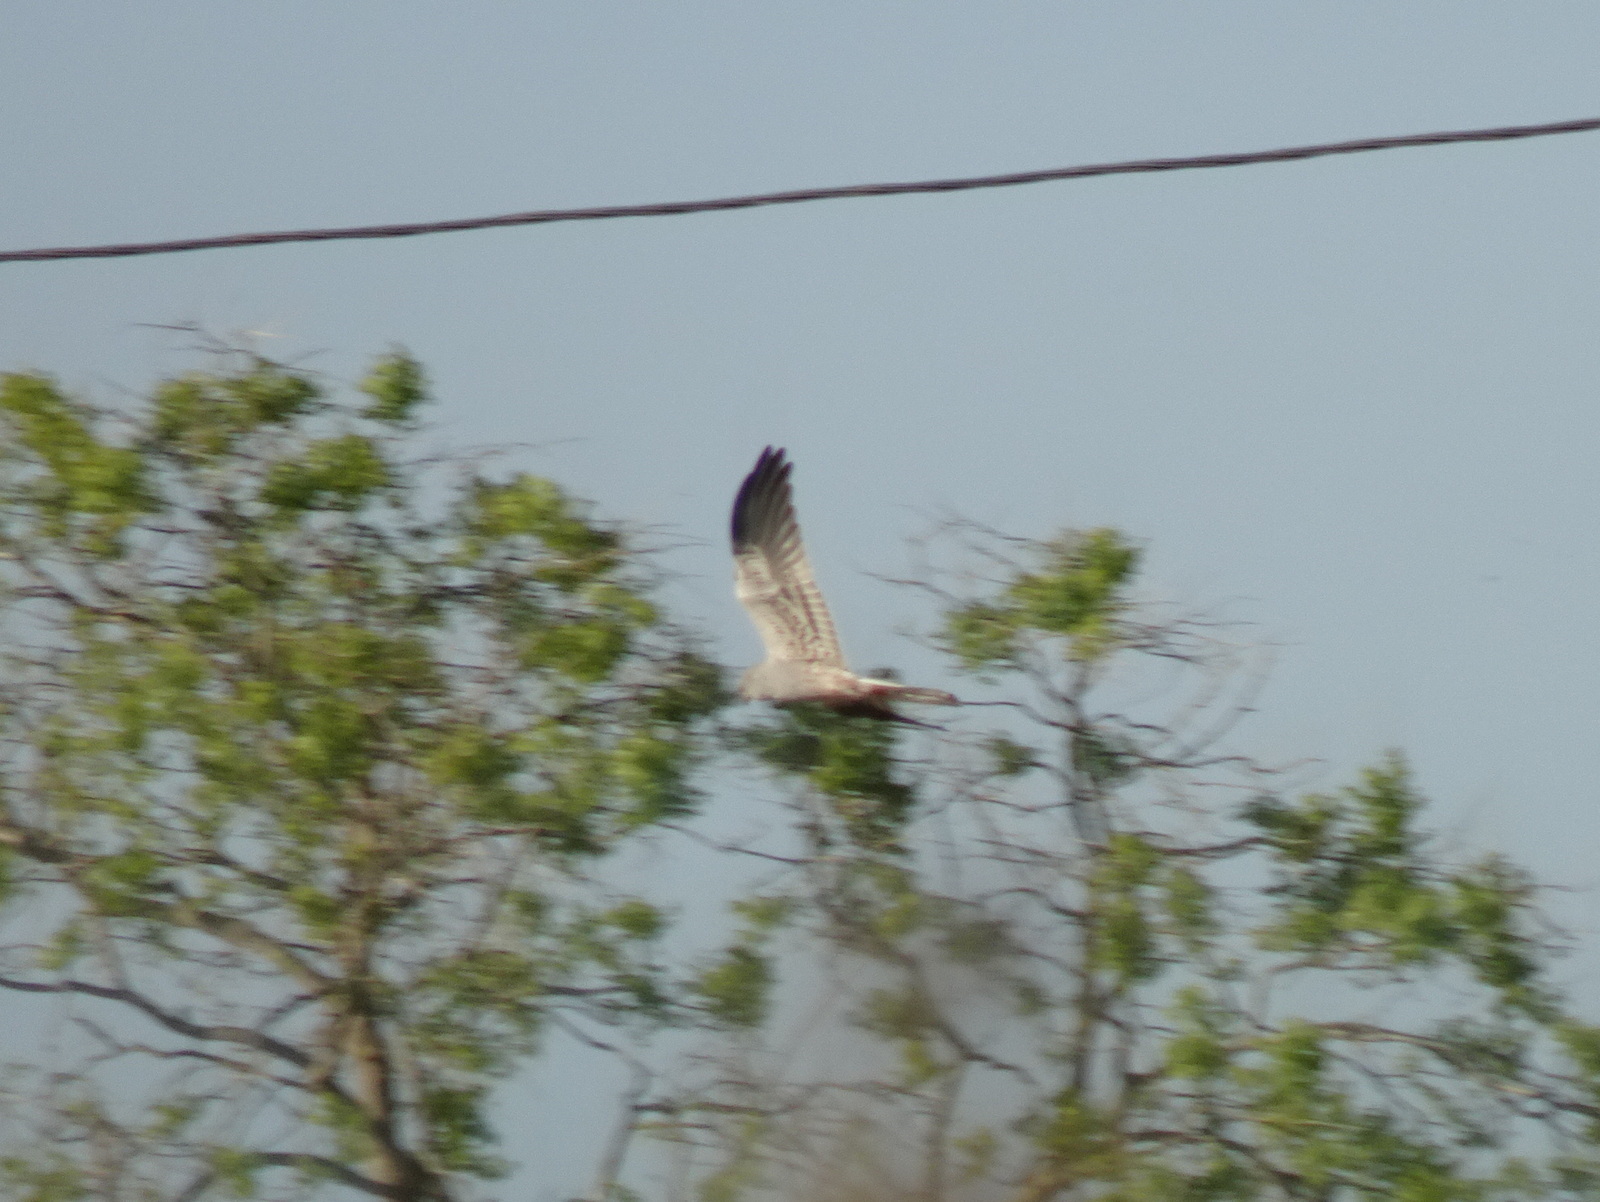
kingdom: Animalia
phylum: Chordata
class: Aves
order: Accipitriformes
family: Accipitridae
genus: Circus
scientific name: Circus pygargus
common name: Montagu's harrier
